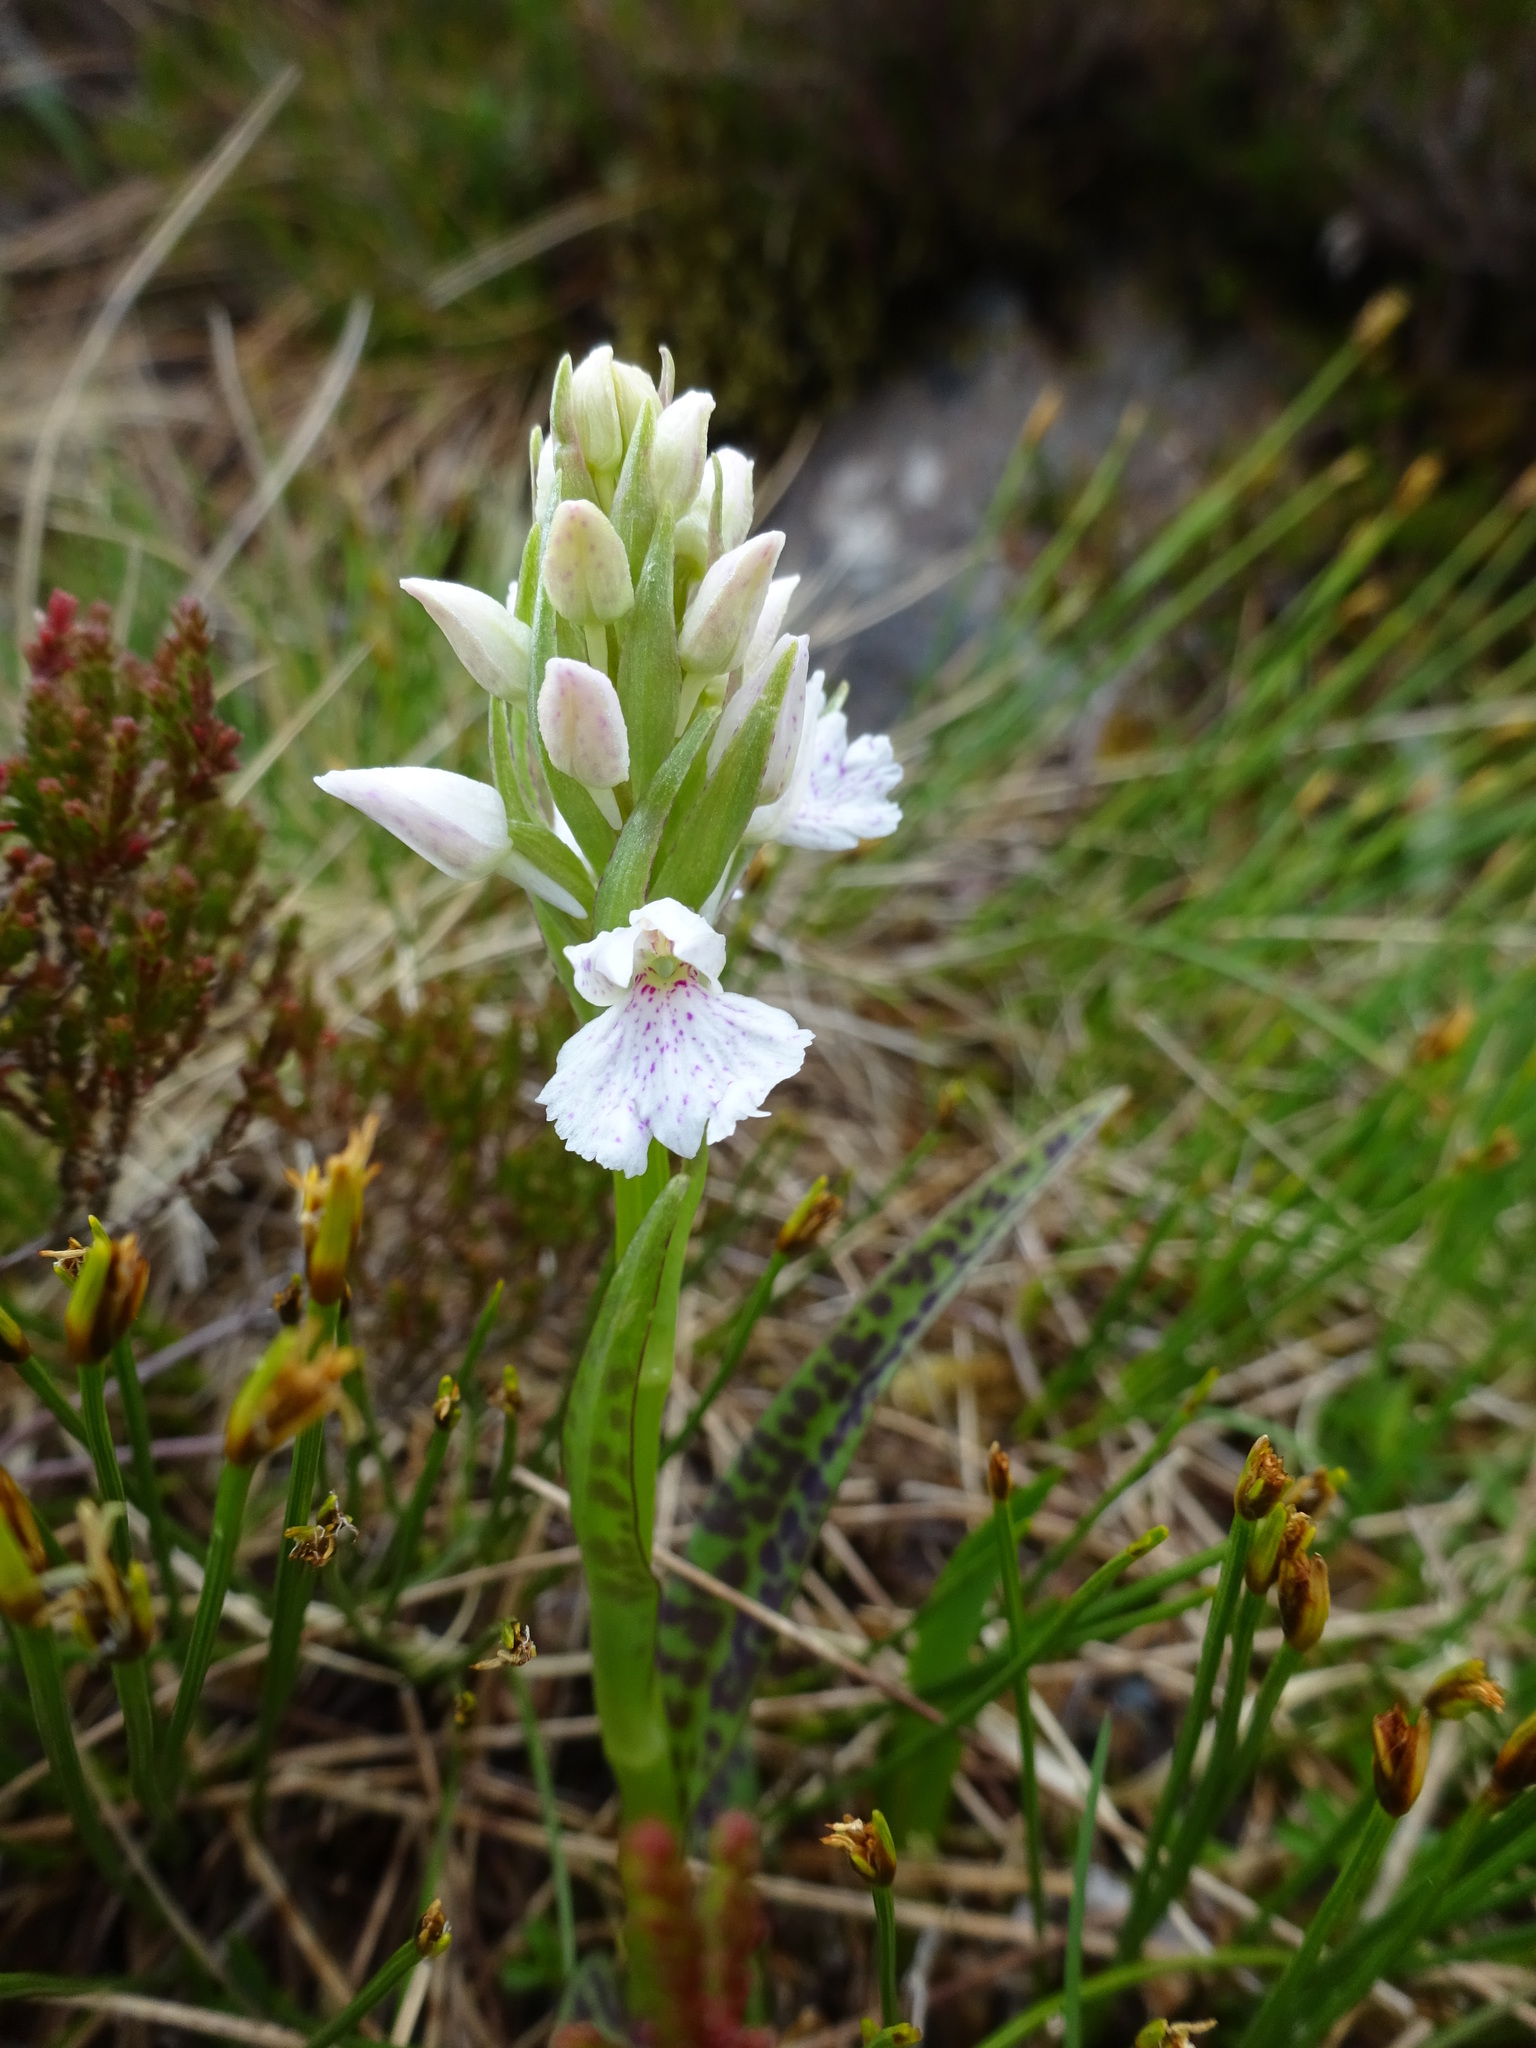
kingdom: Plantae
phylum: Tracheophyta
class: Liliopsida
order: Asparagales
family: Orchidaceae
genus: Dactylorhiza
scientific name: Dactylorhiza maculata
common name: Heath spotted-orchid
